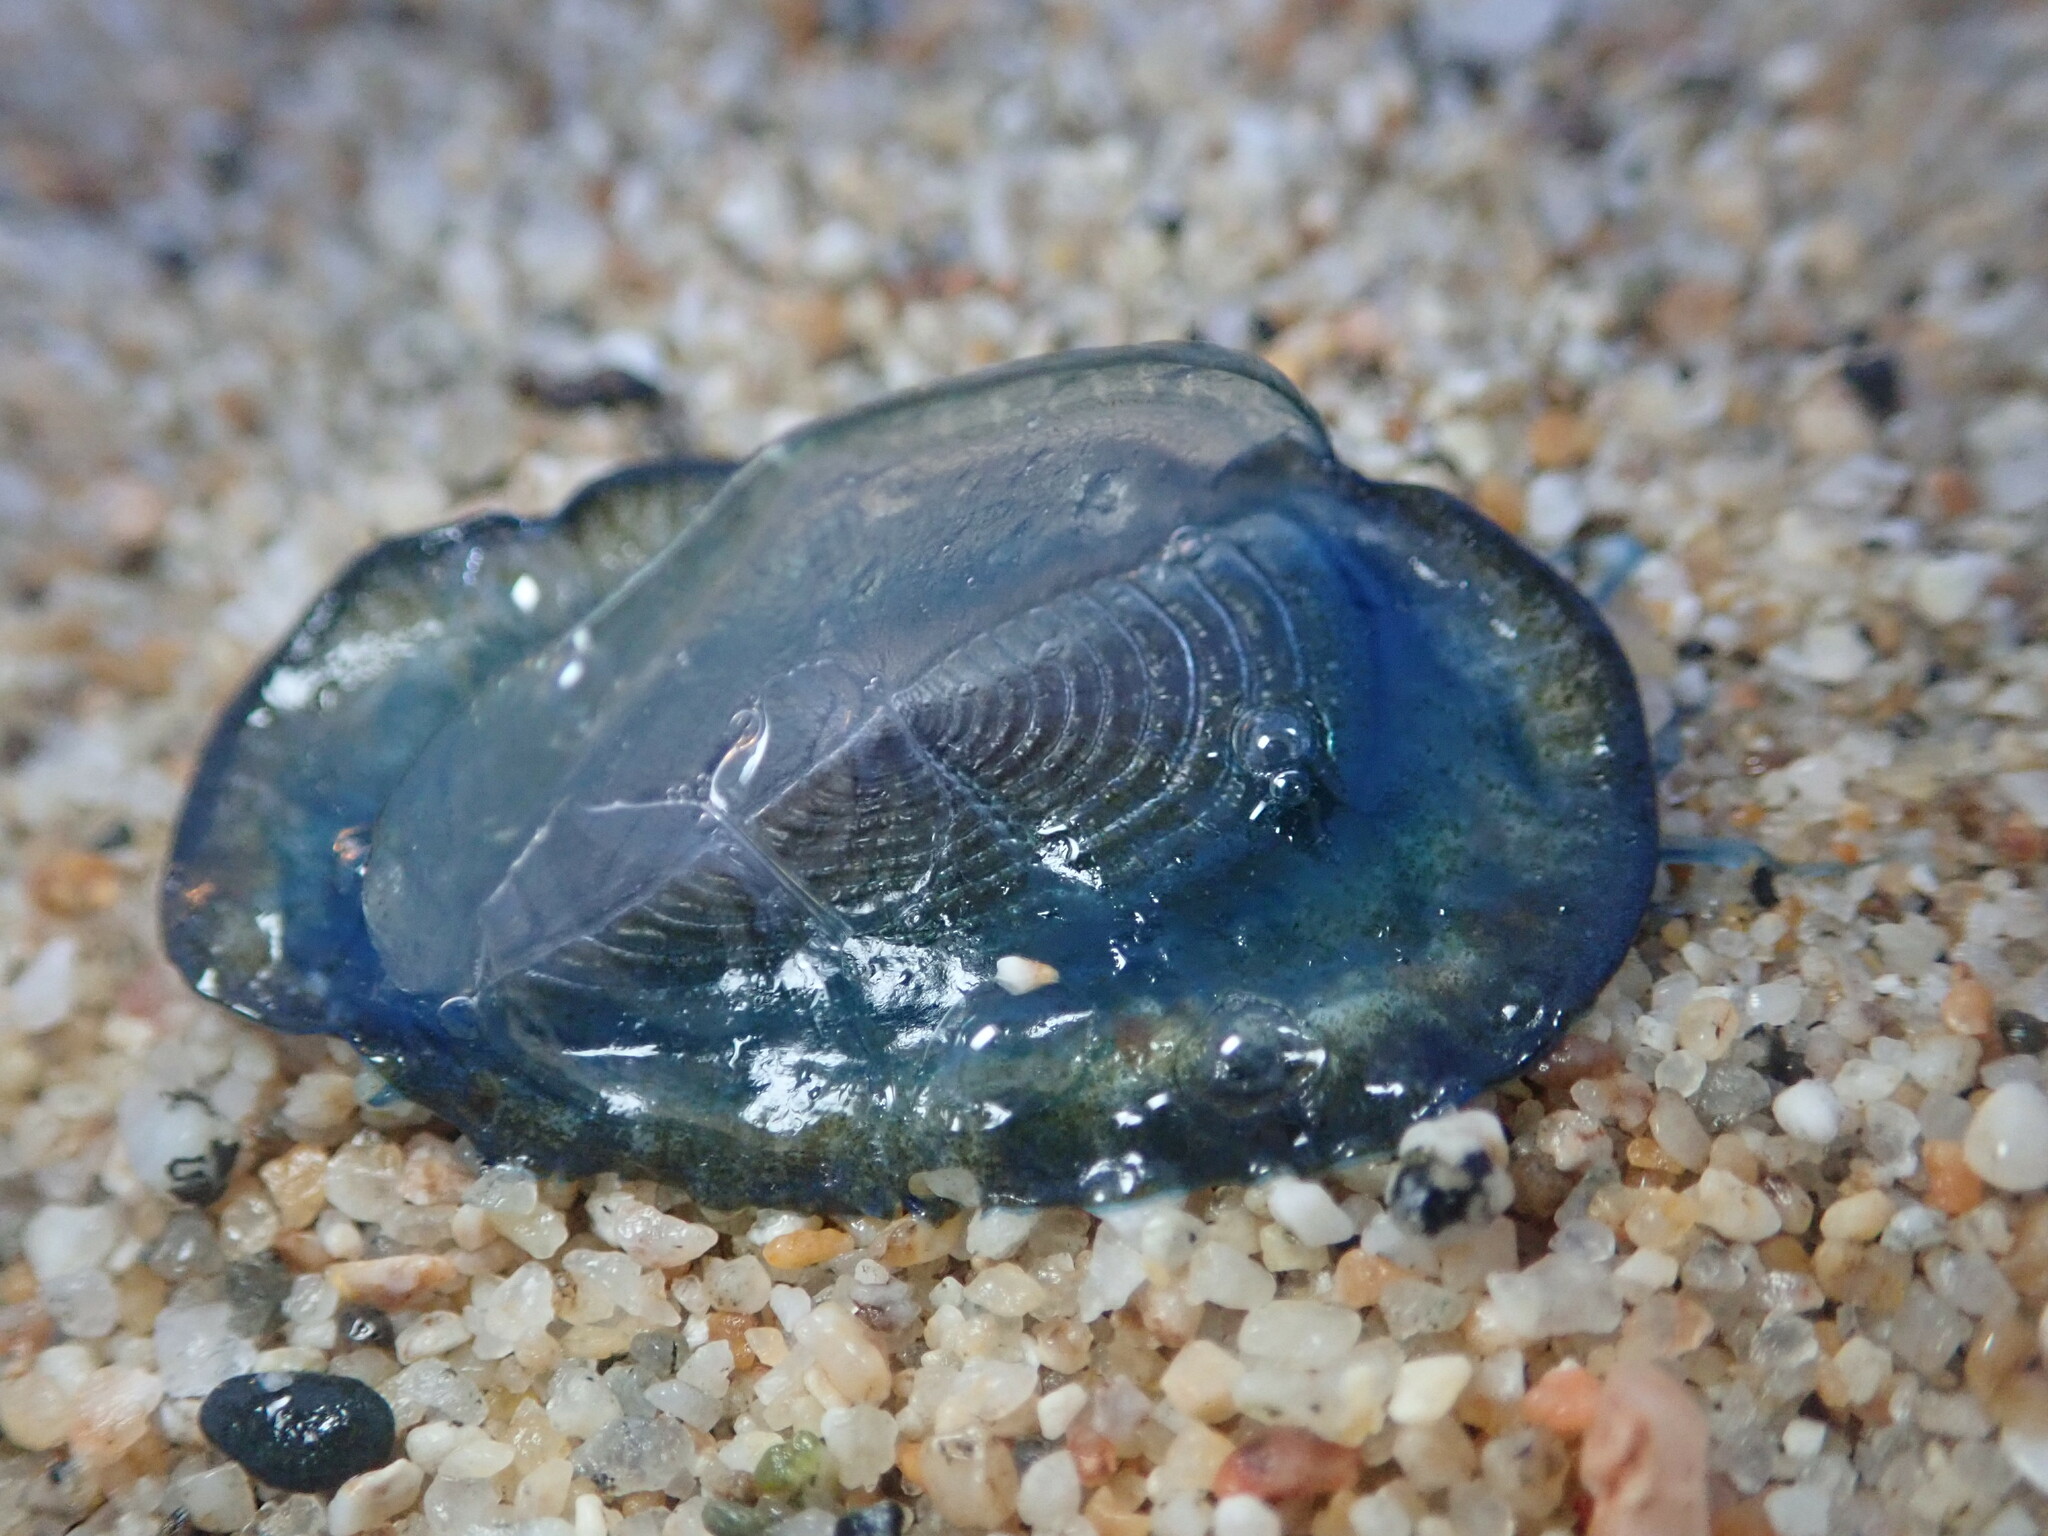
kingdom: Animalia
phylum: Cnidaria
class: Hydrozoa
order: Anthoathecata
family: Porpitidae
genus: Velella
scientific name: Velella velella
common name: By-the-wind-sailor
